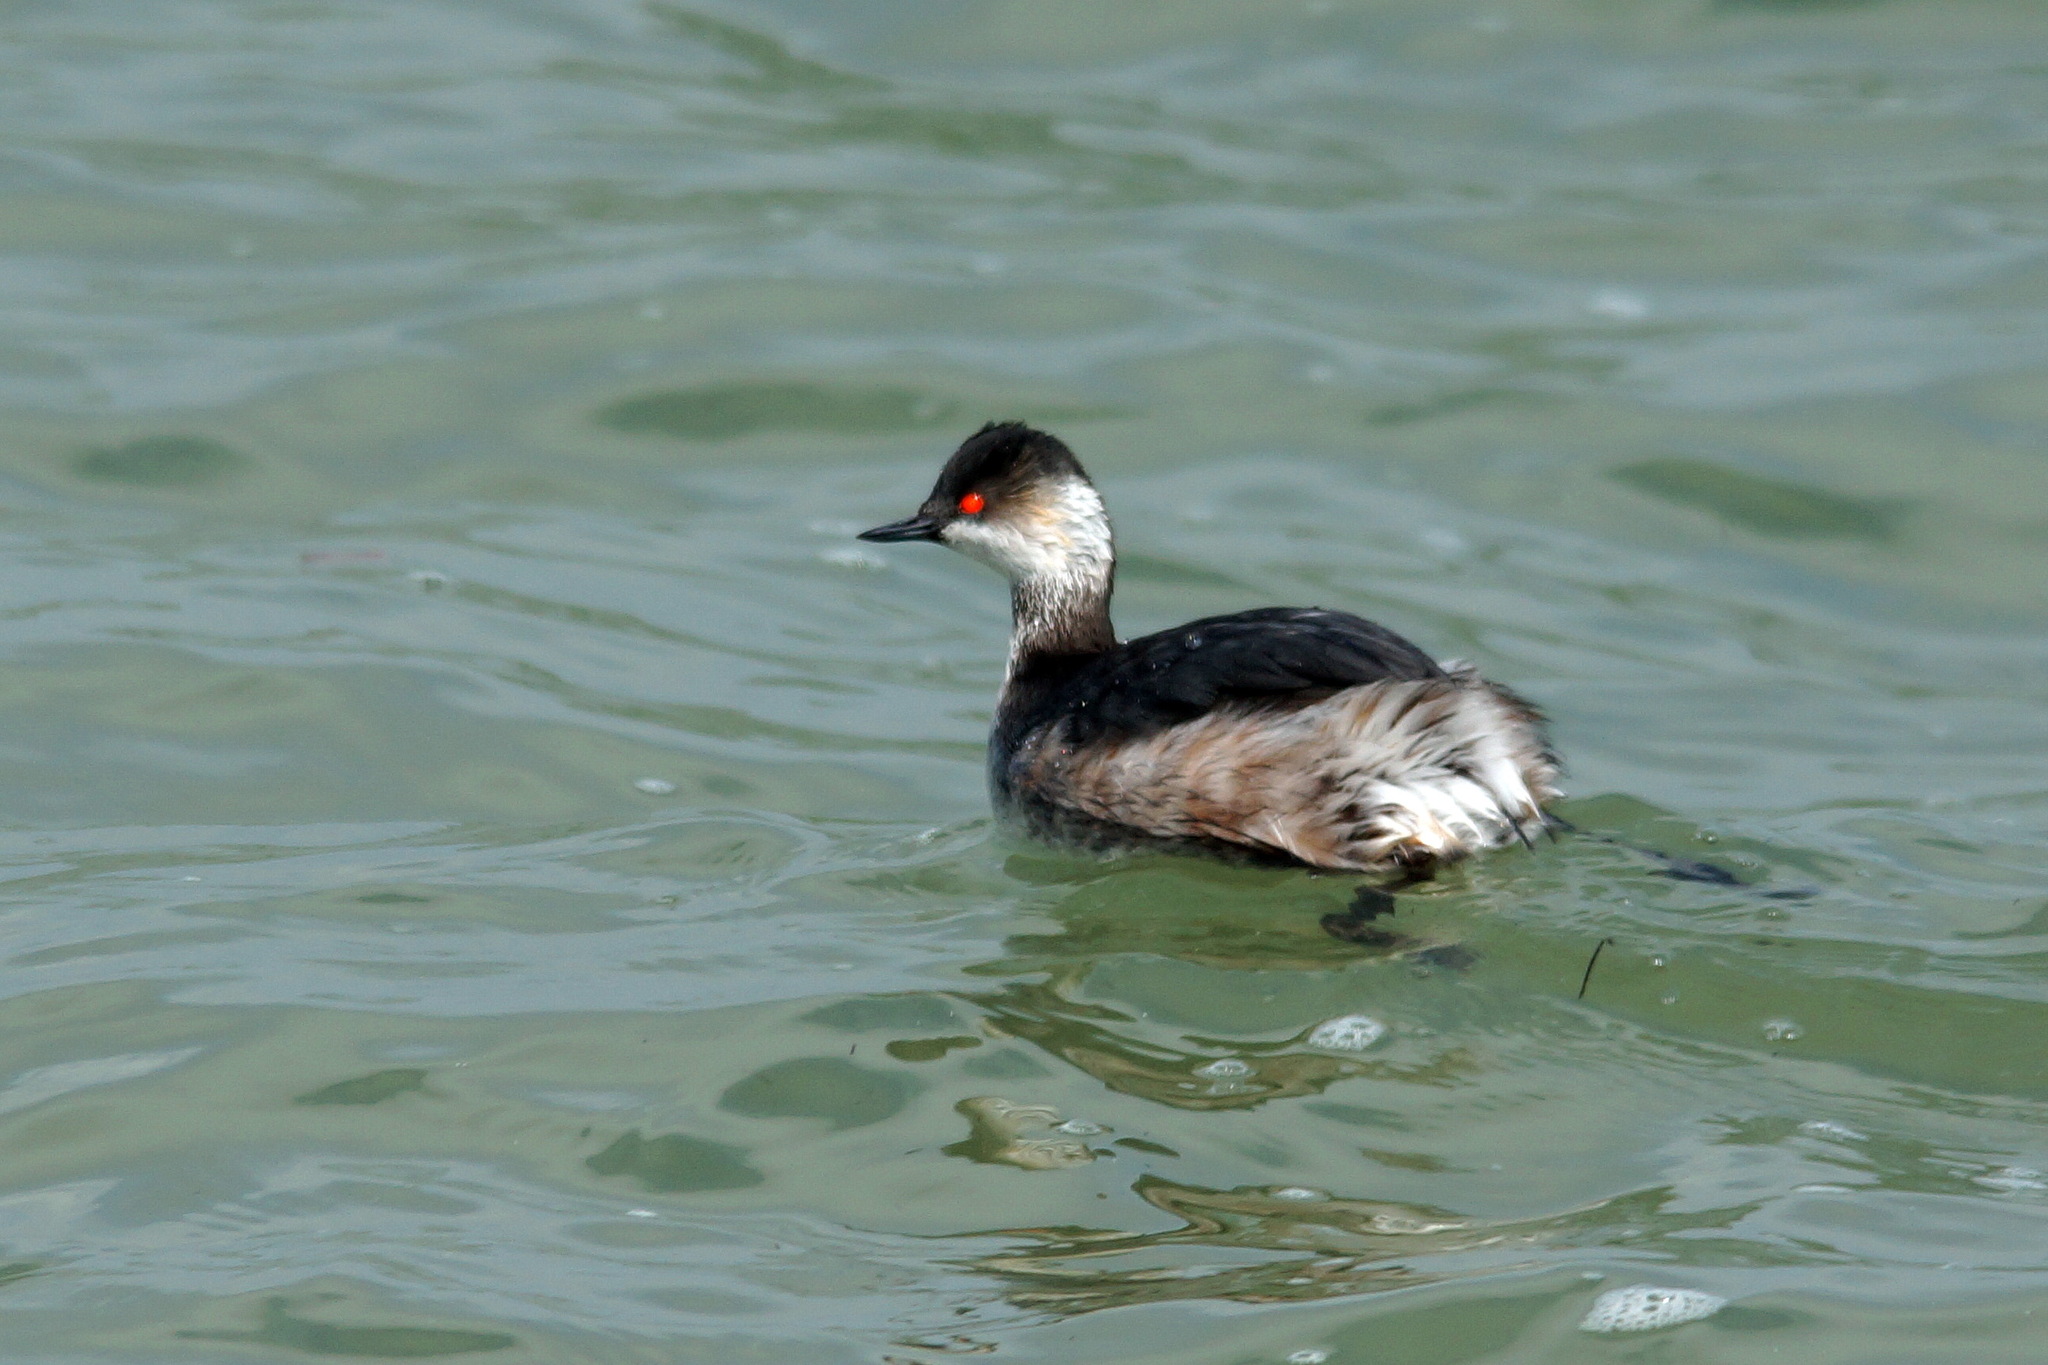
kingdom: Animalia
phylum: Chordata
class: Aves
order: Podicipediformes
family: Podicipedidae
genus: Podiceps
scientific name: Podiceps nigricollis
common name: Black-necked grebe
